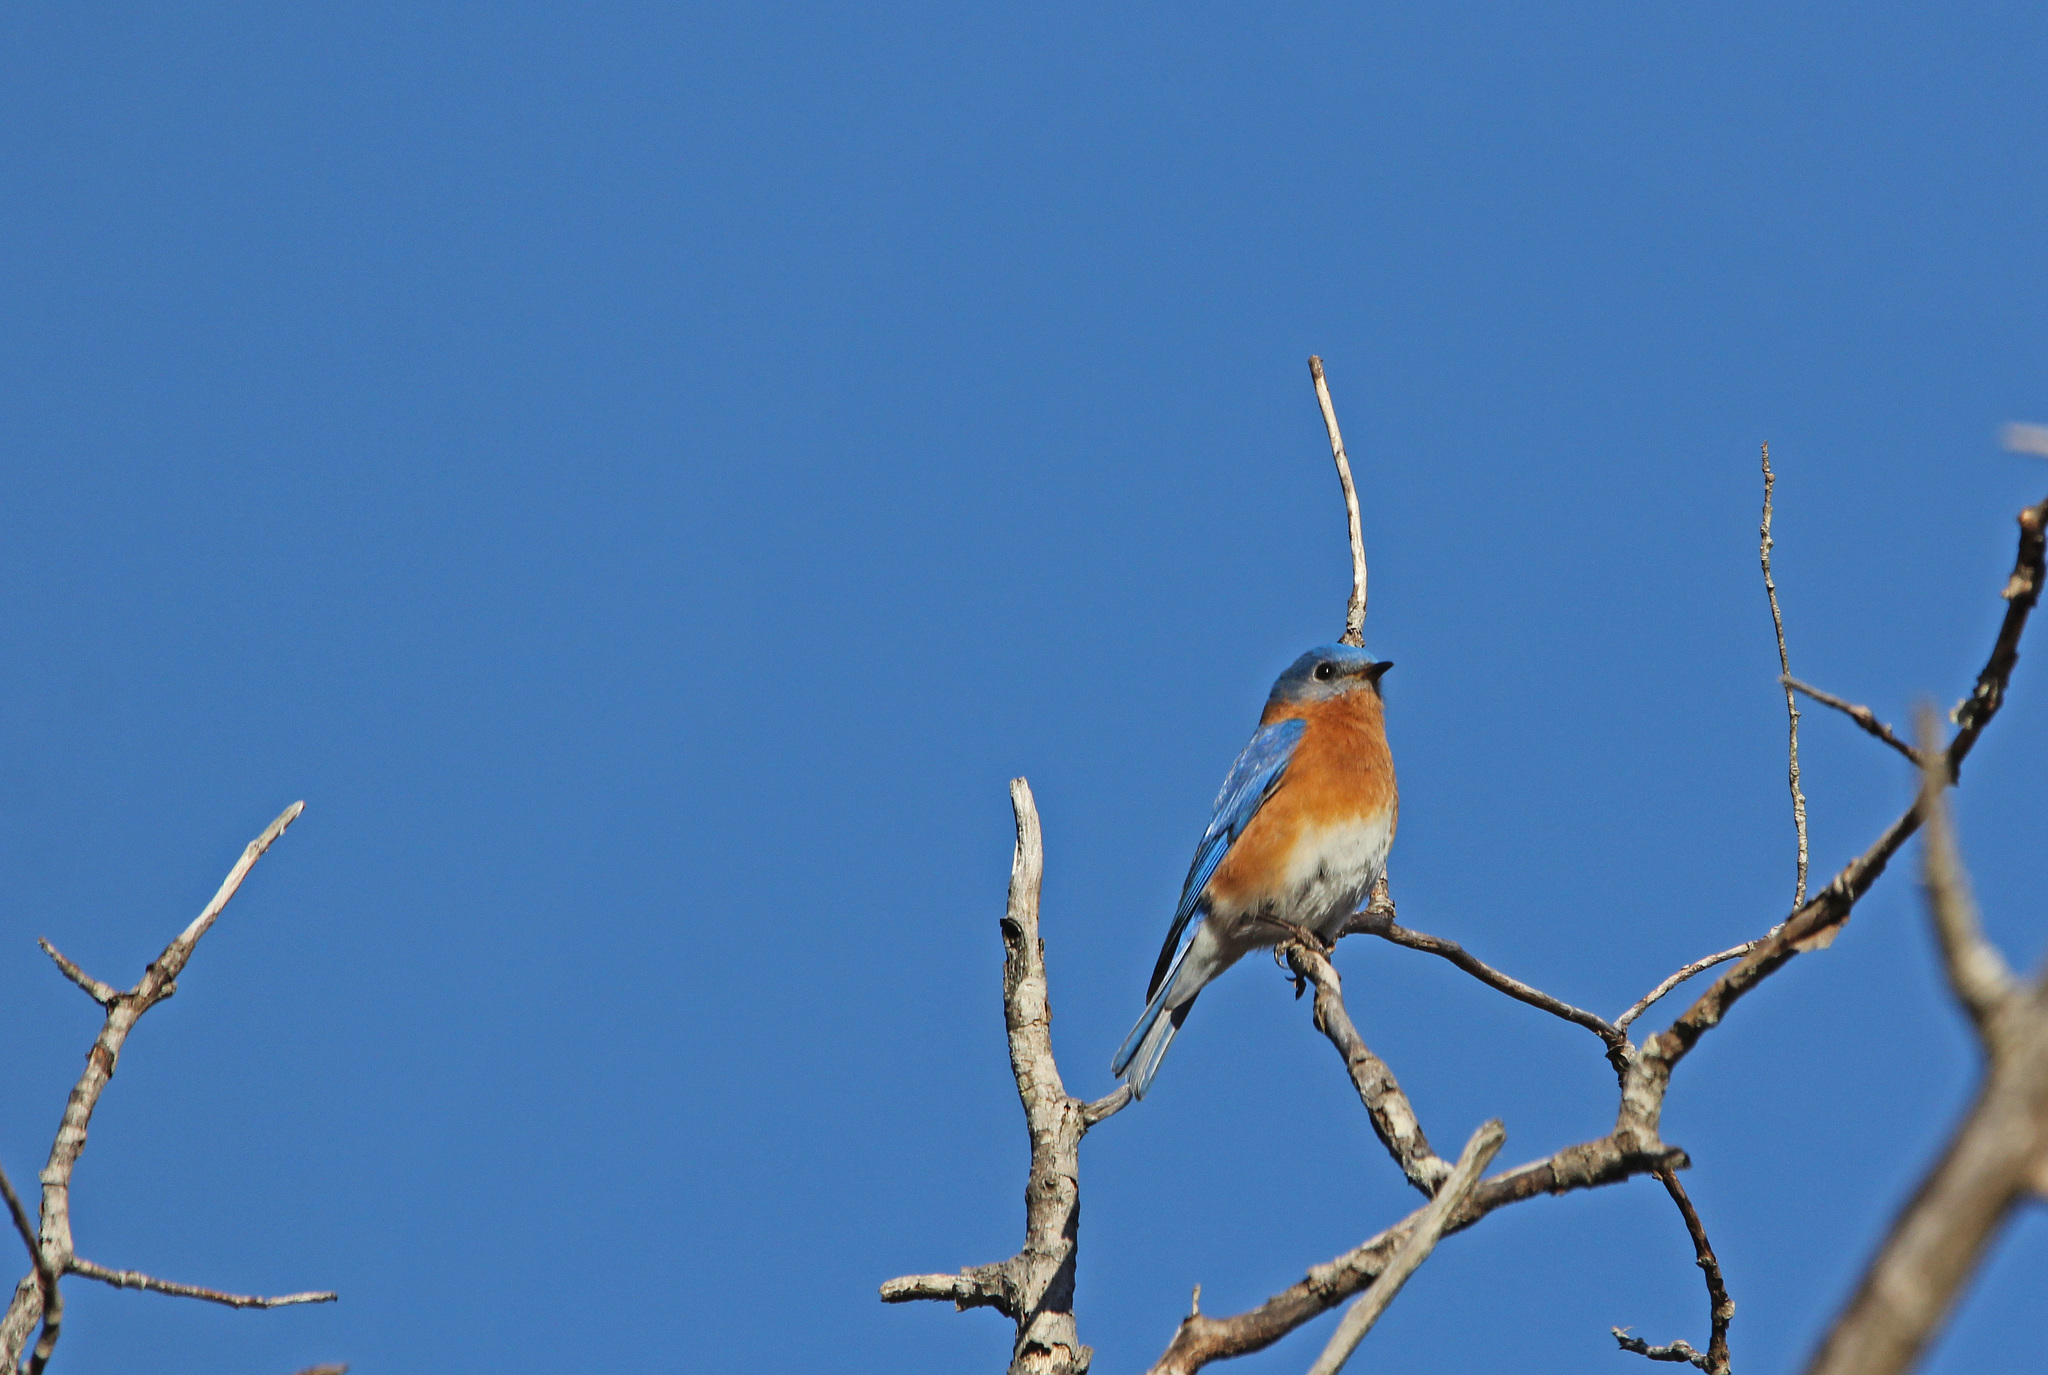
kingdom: Animalia
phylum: Chordata
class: Aves
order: Passeriformes
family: Turdidae
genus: Sialia
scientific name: Sialia sialis
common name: Eastern bluebird
